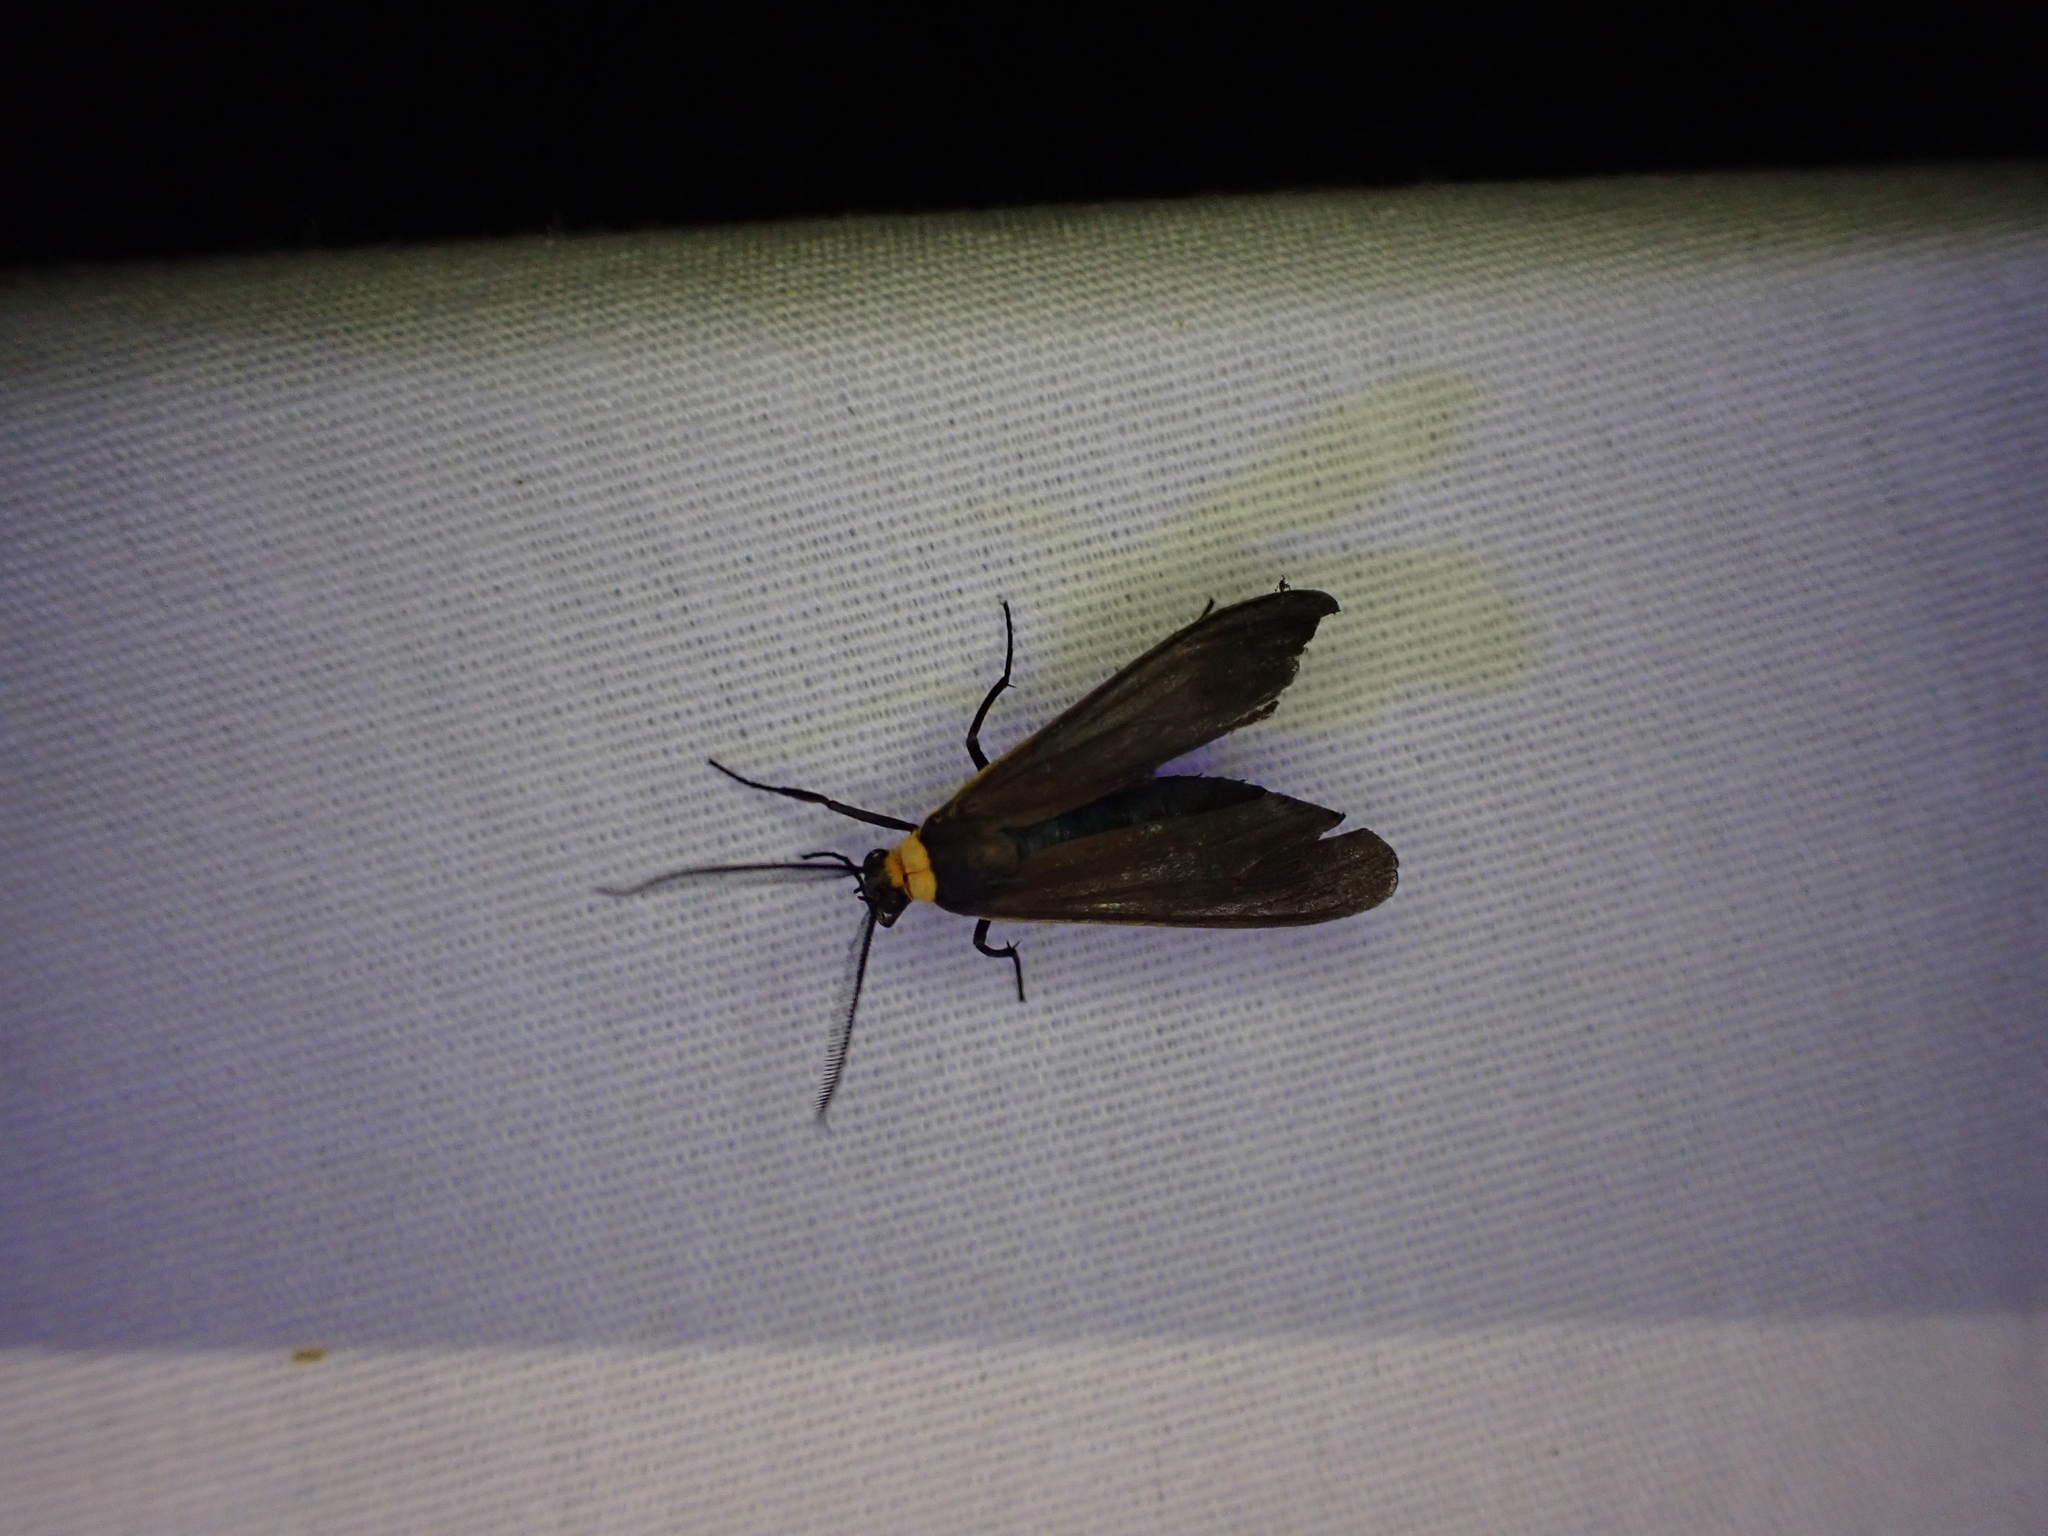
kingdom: Animalia
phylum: Arthropoda
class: Insecta
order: Lepidoptera
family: Erebidae
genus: Cisseps
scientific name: Cisseps fulvicollis
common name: Yellow-collared scape moth
